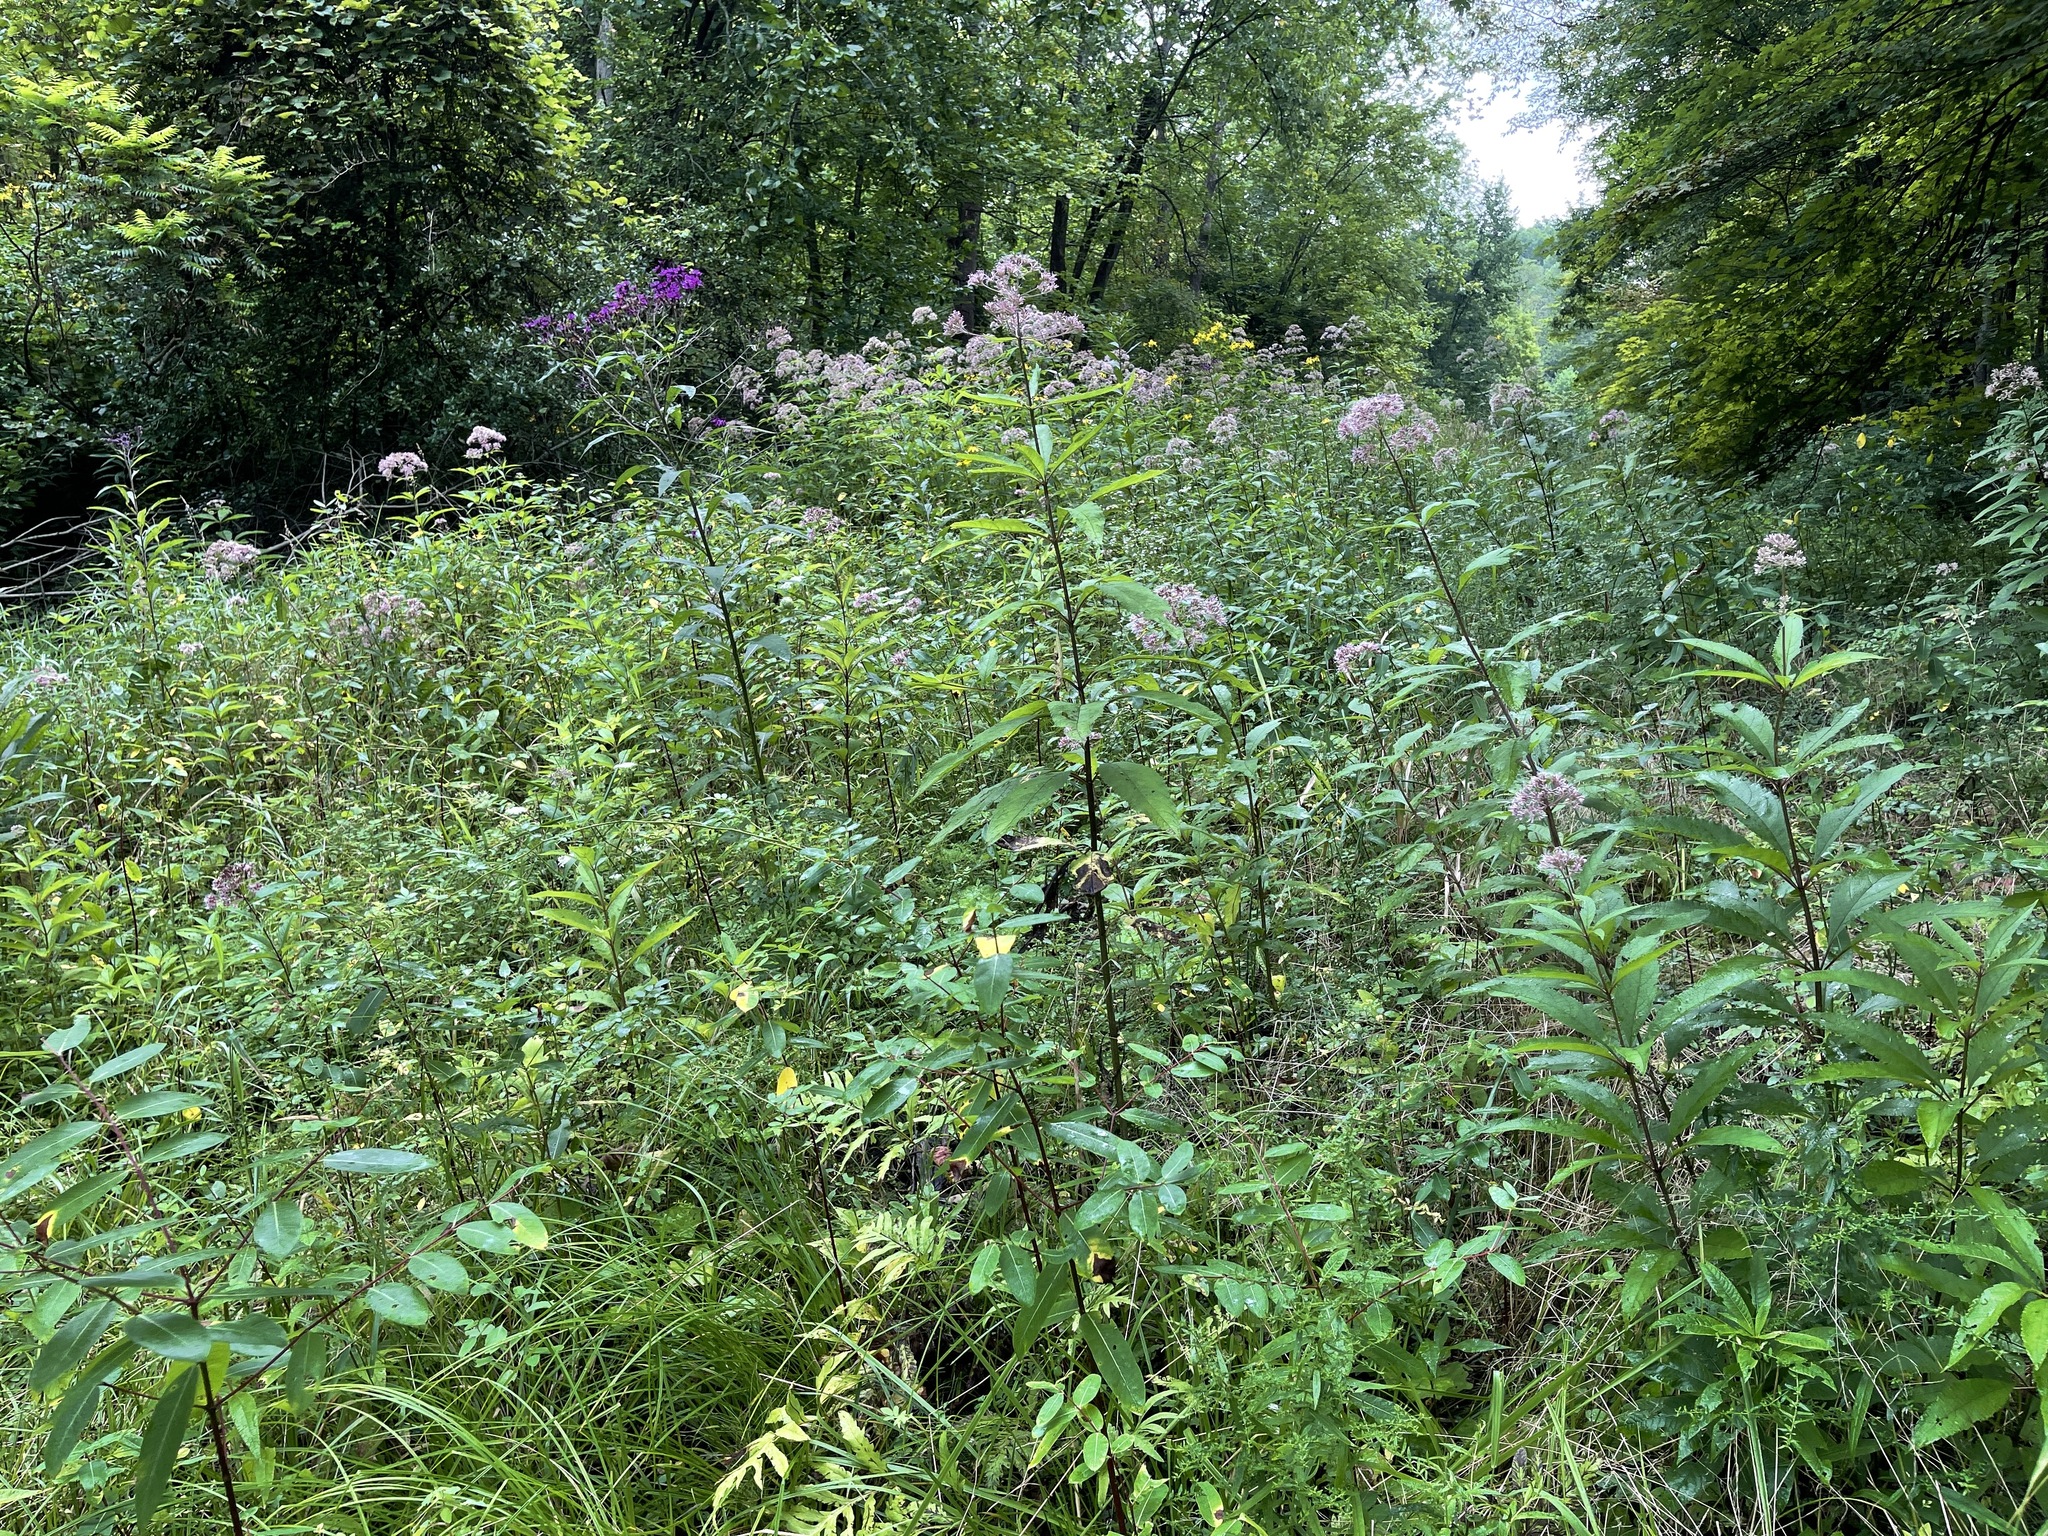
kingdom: Plantae
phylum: Tracheophyta
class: Magnoliopsida
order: Asterales
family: Asteraceae
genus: Eutrochium
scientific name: Eutrochium fistulosum
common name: Trumpetweed
